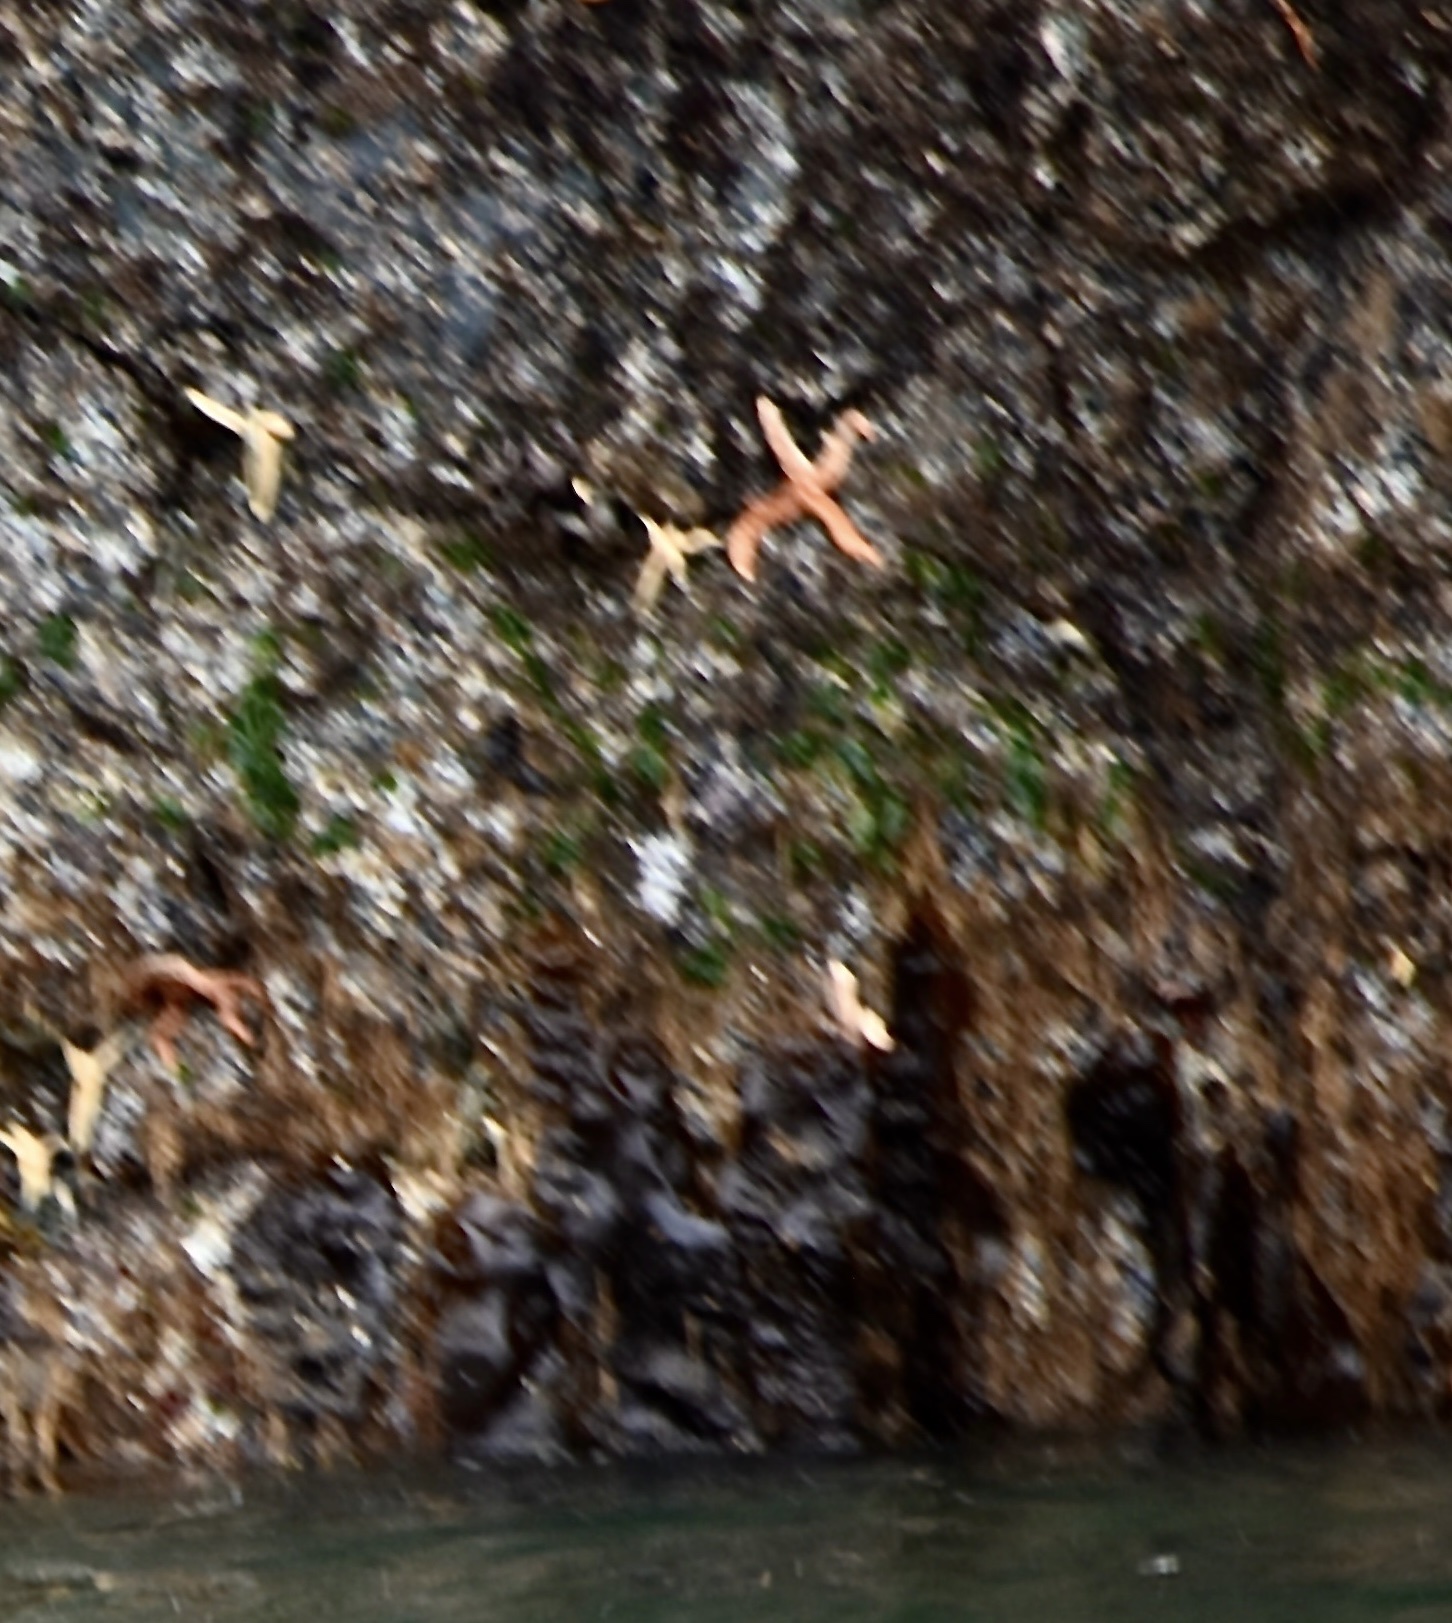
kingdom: Animalia
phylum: Echinodermata
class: Asteroidea
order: Forcipulatida
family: Asteriidae
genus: Evasterias
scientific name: Evasterias troschelii
